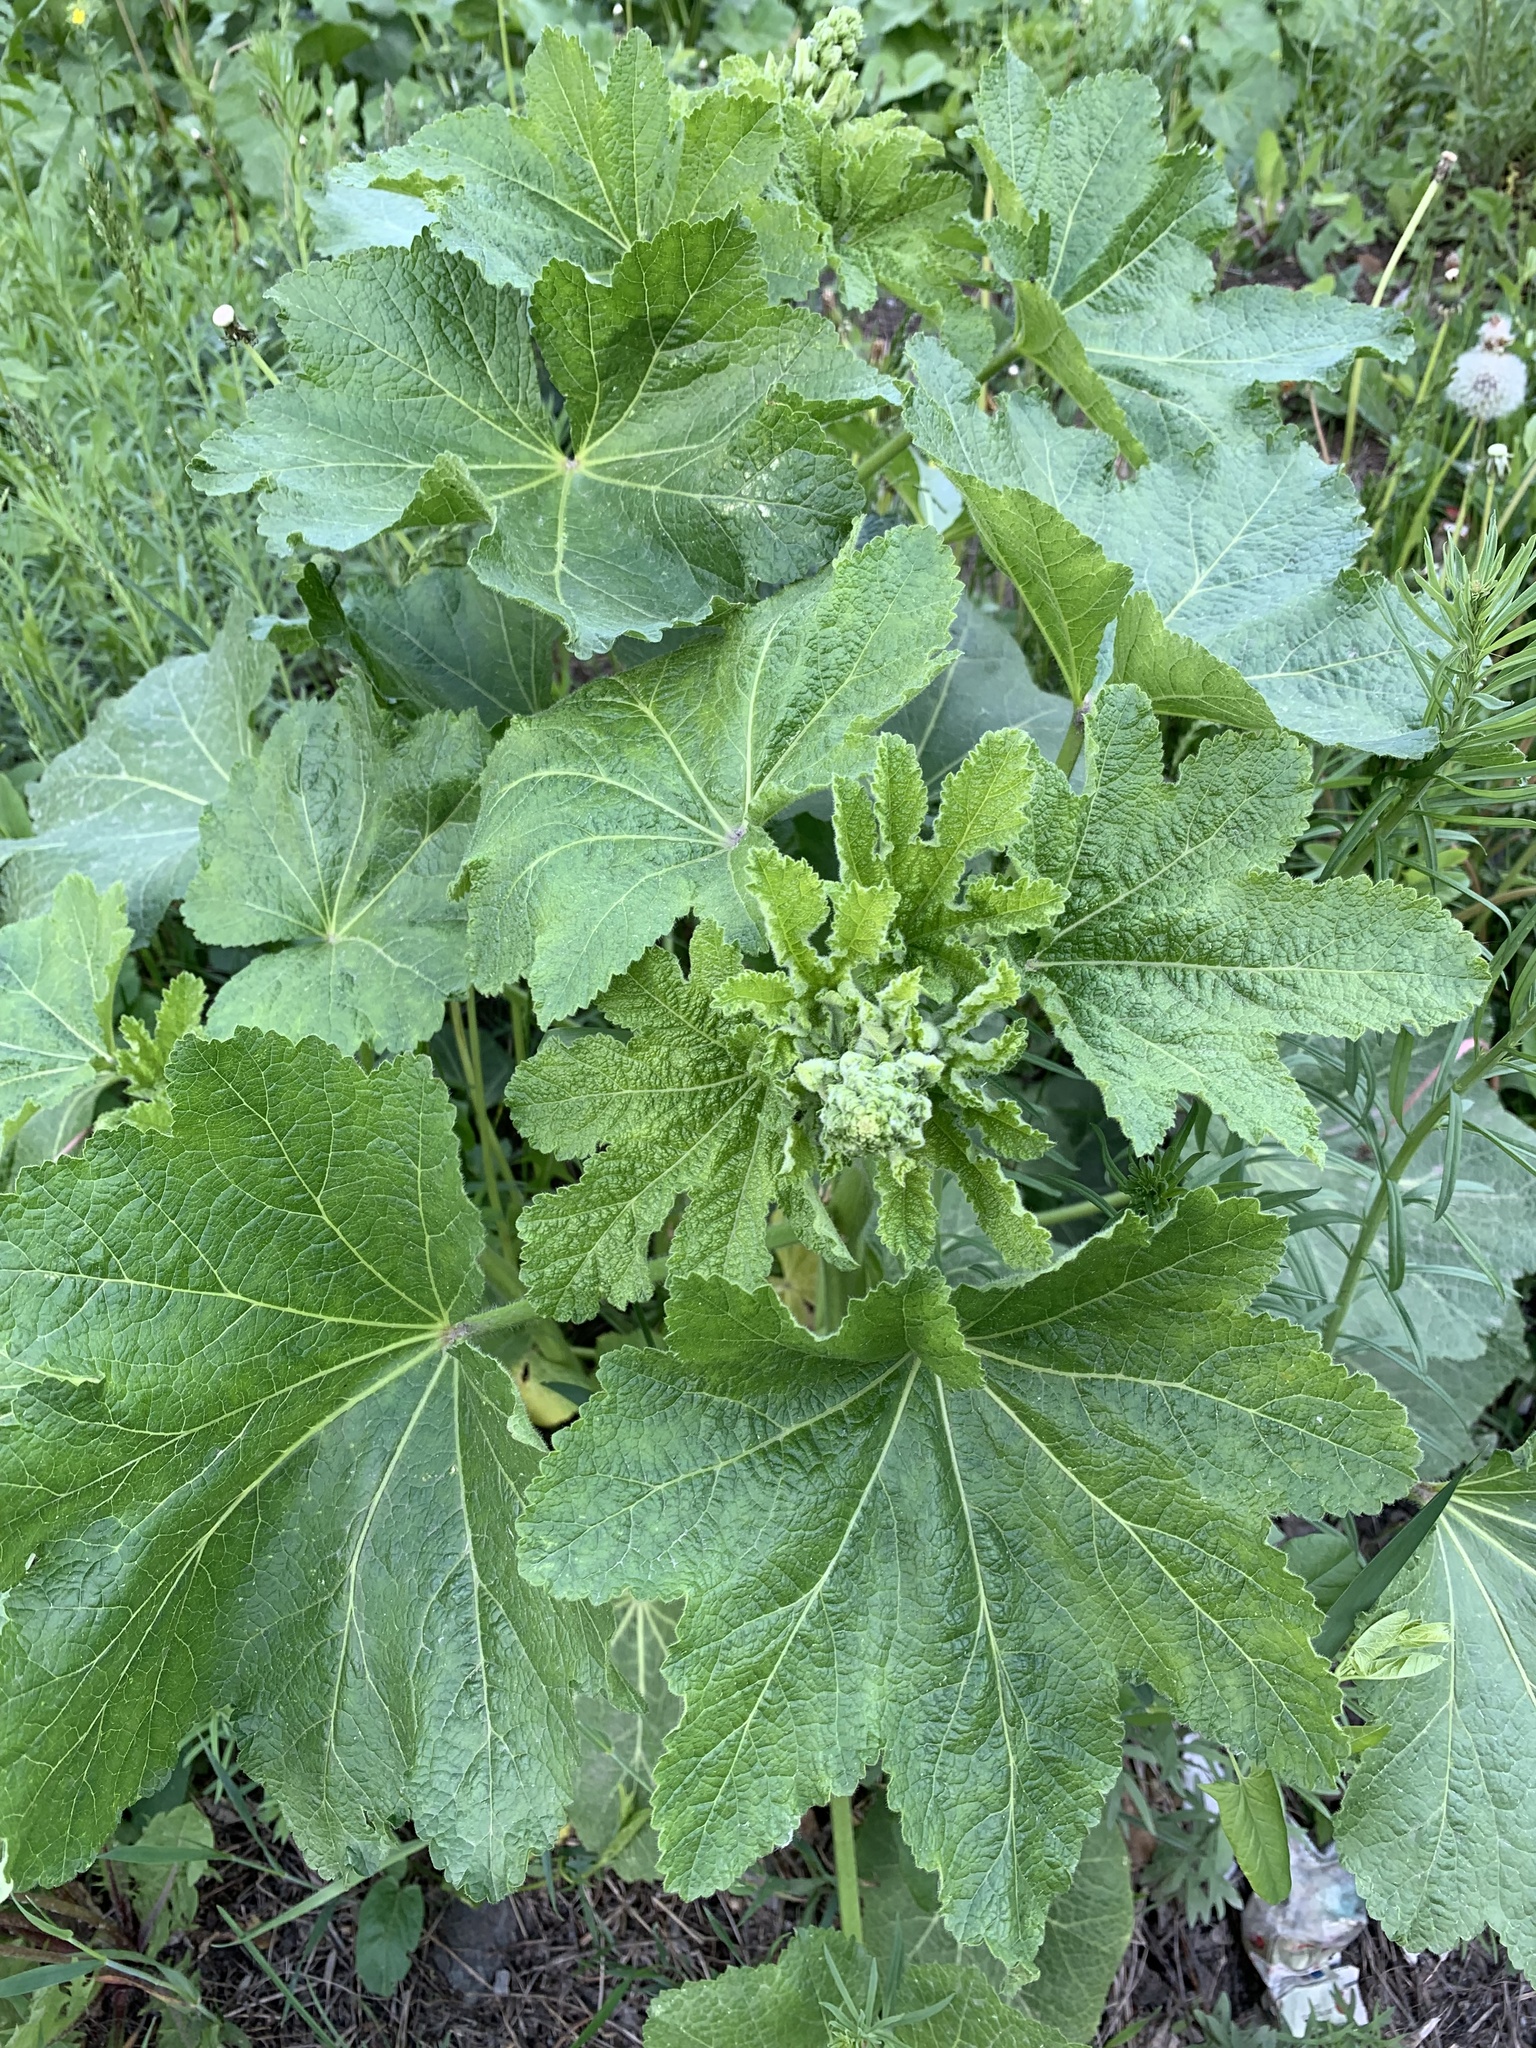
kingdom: Plantae
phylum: Tracheophyta
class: Magnoliopsida
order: Malvales
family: Malvaceae
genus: Alcea
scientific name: Alcea rosea
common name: Hollyhock
